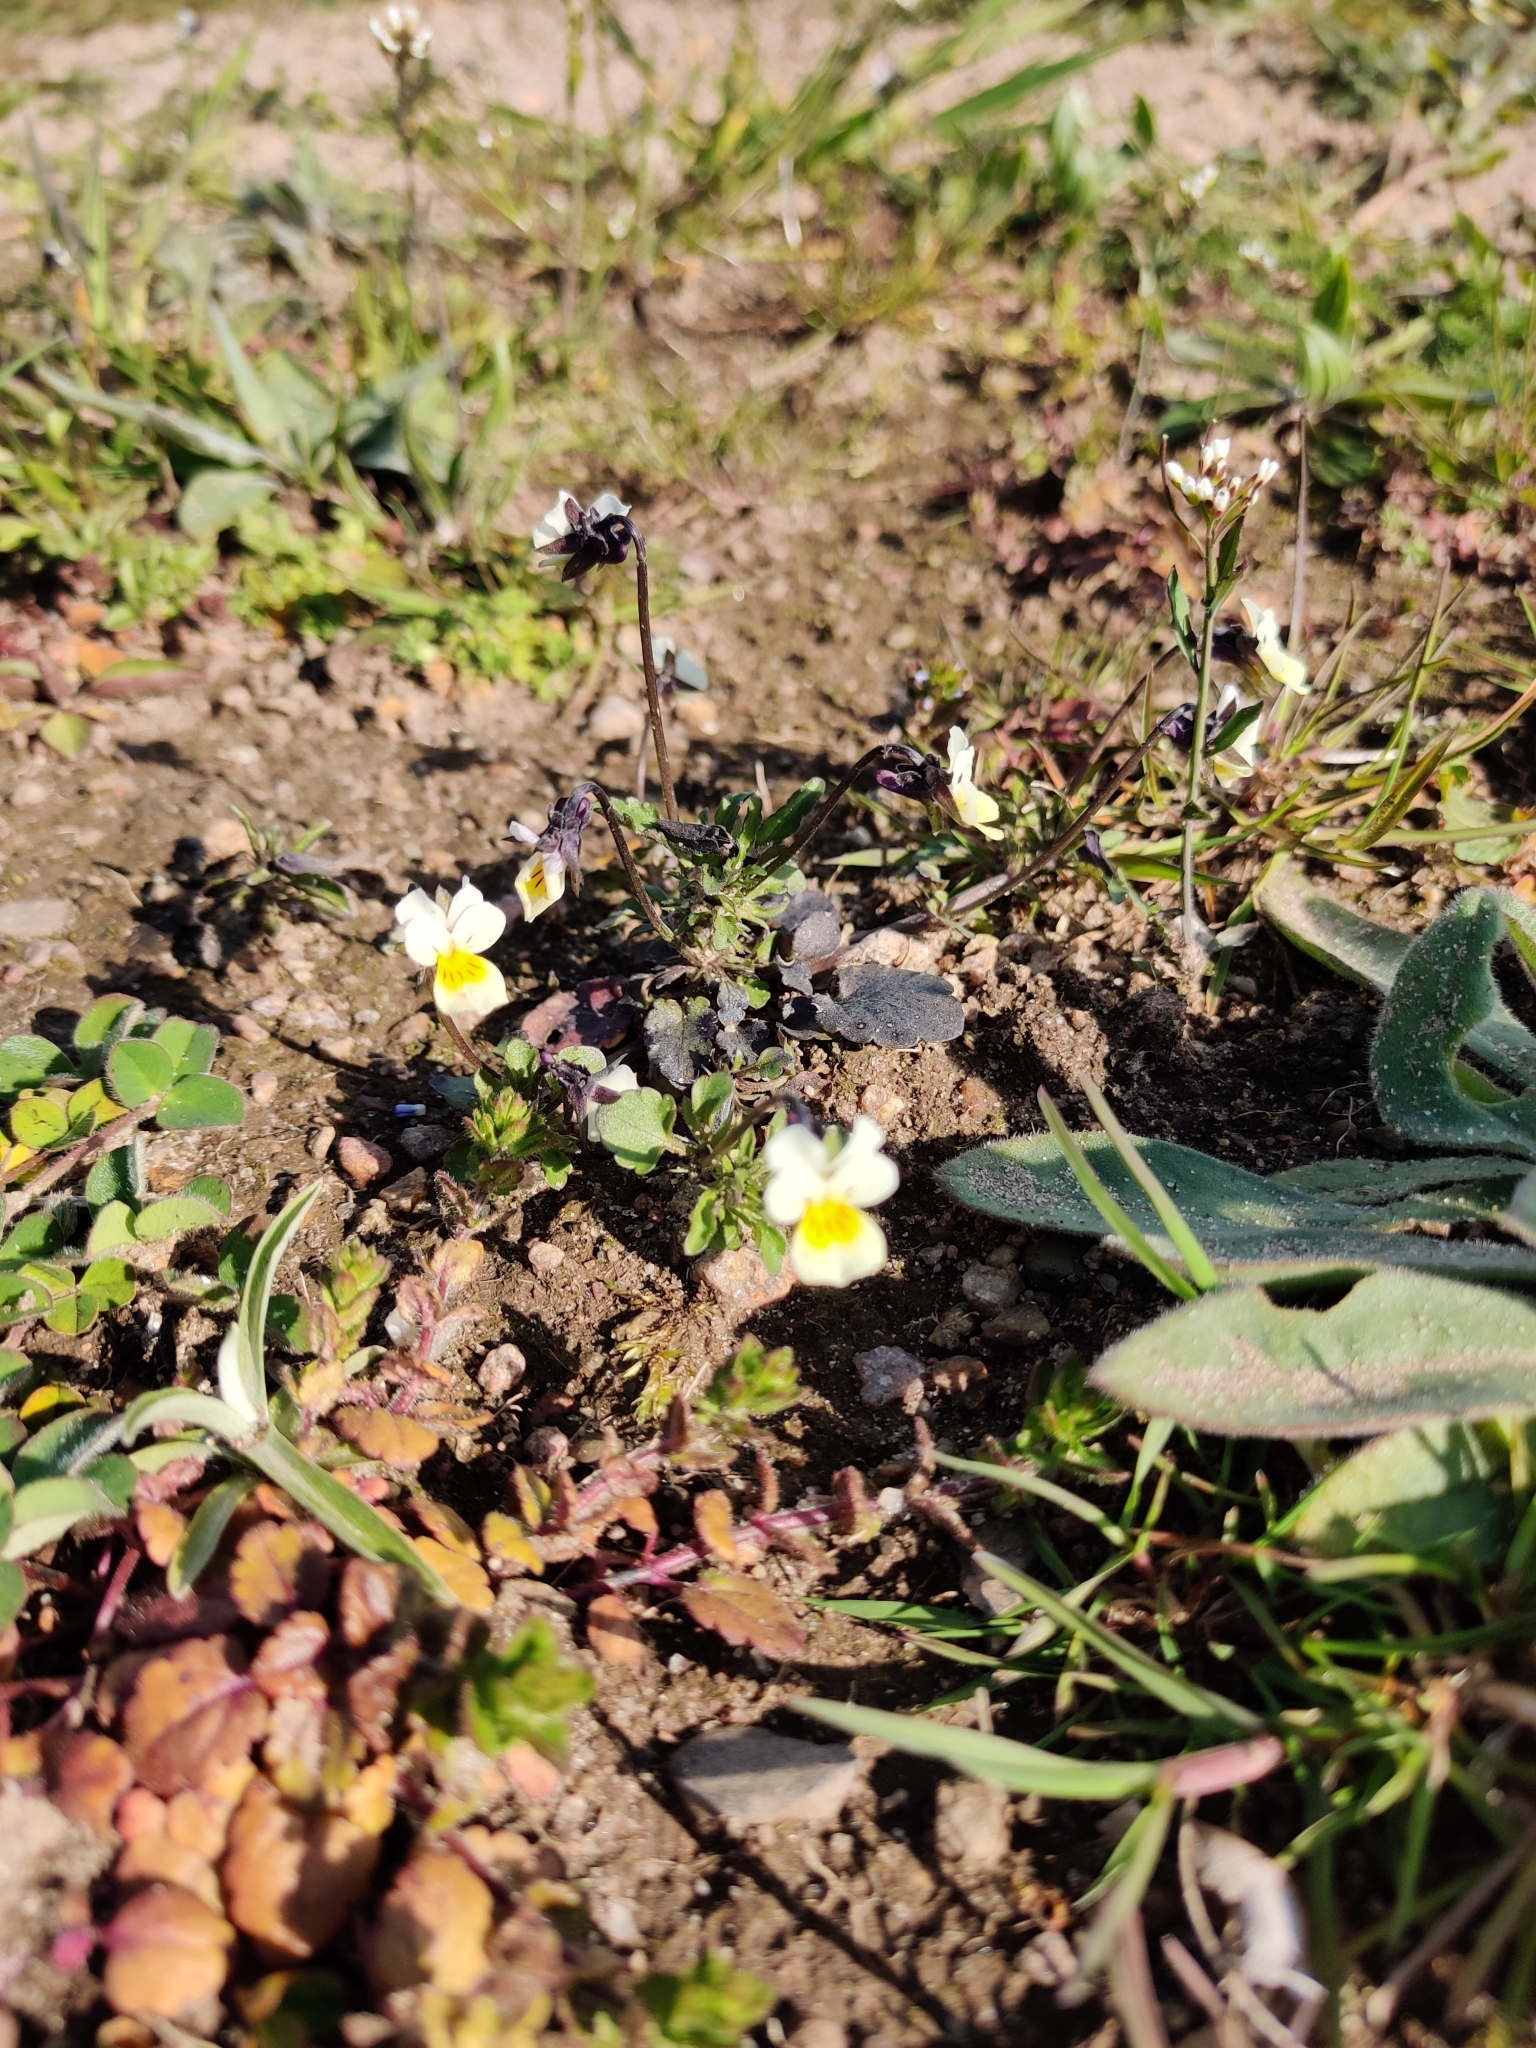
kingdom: Plantae
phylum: Tracheophyta
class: Magnoliopsida
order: Malpighiales
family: Violaceae
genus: Viola
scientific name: Viola arvensis
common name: Field pansy
